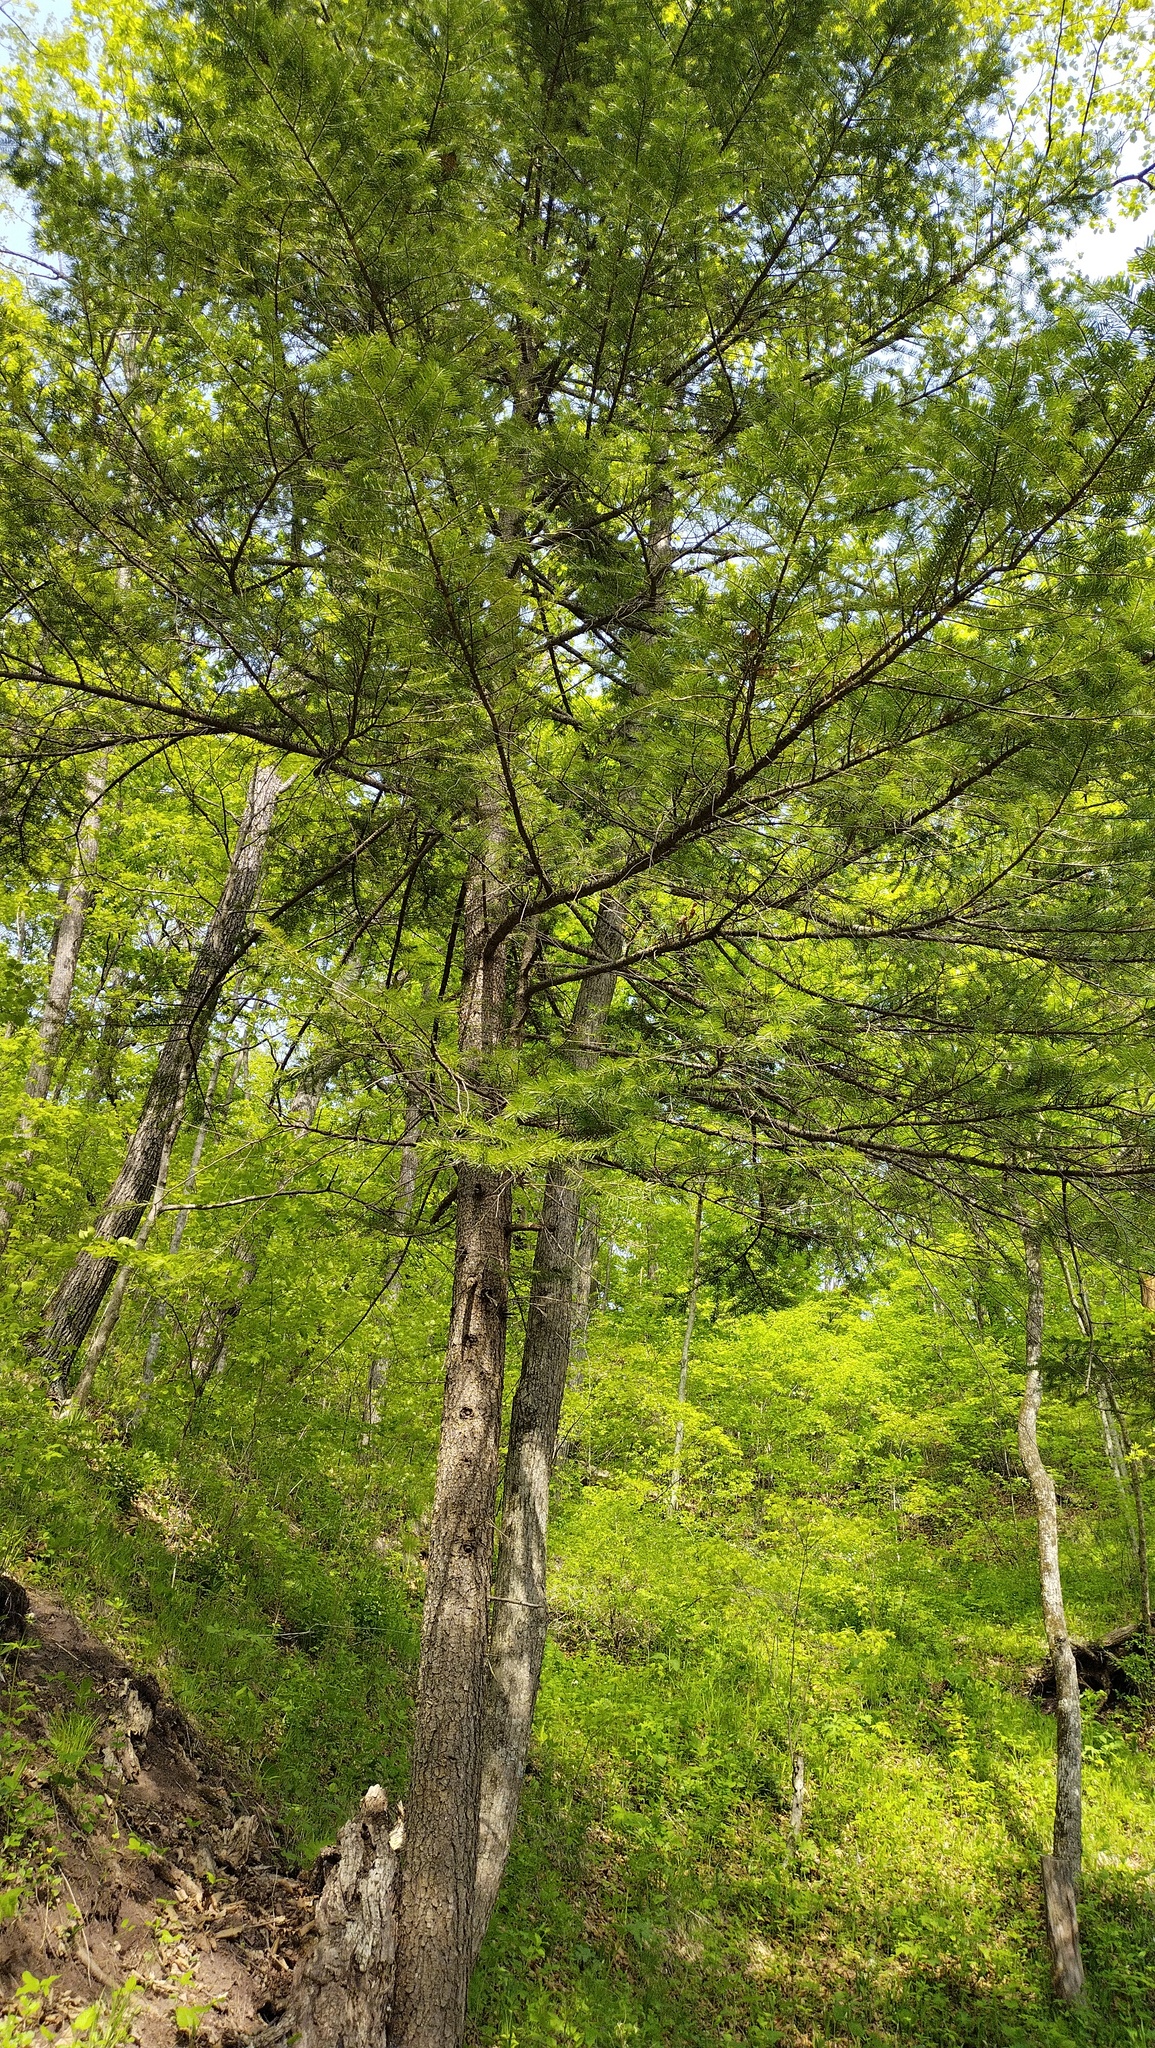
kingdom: Plantae
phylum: Tracheophyta
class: Pinopsida
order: Pinales
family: Pinaceae
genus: Abies
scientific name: Abies holophylla
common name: Manchurian fir
